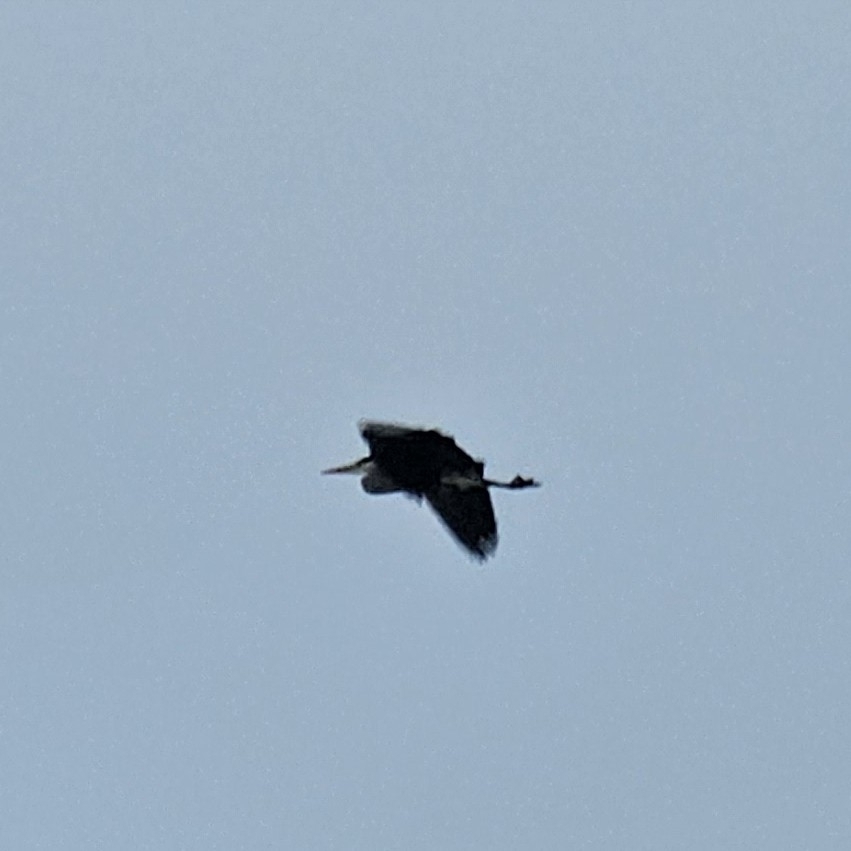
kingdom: Animalia
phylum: Chordata
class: Aves
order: Pelecaniformes
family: Ardeidae
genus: Ardea
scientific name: Ardea cinerea
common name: Grey heron
